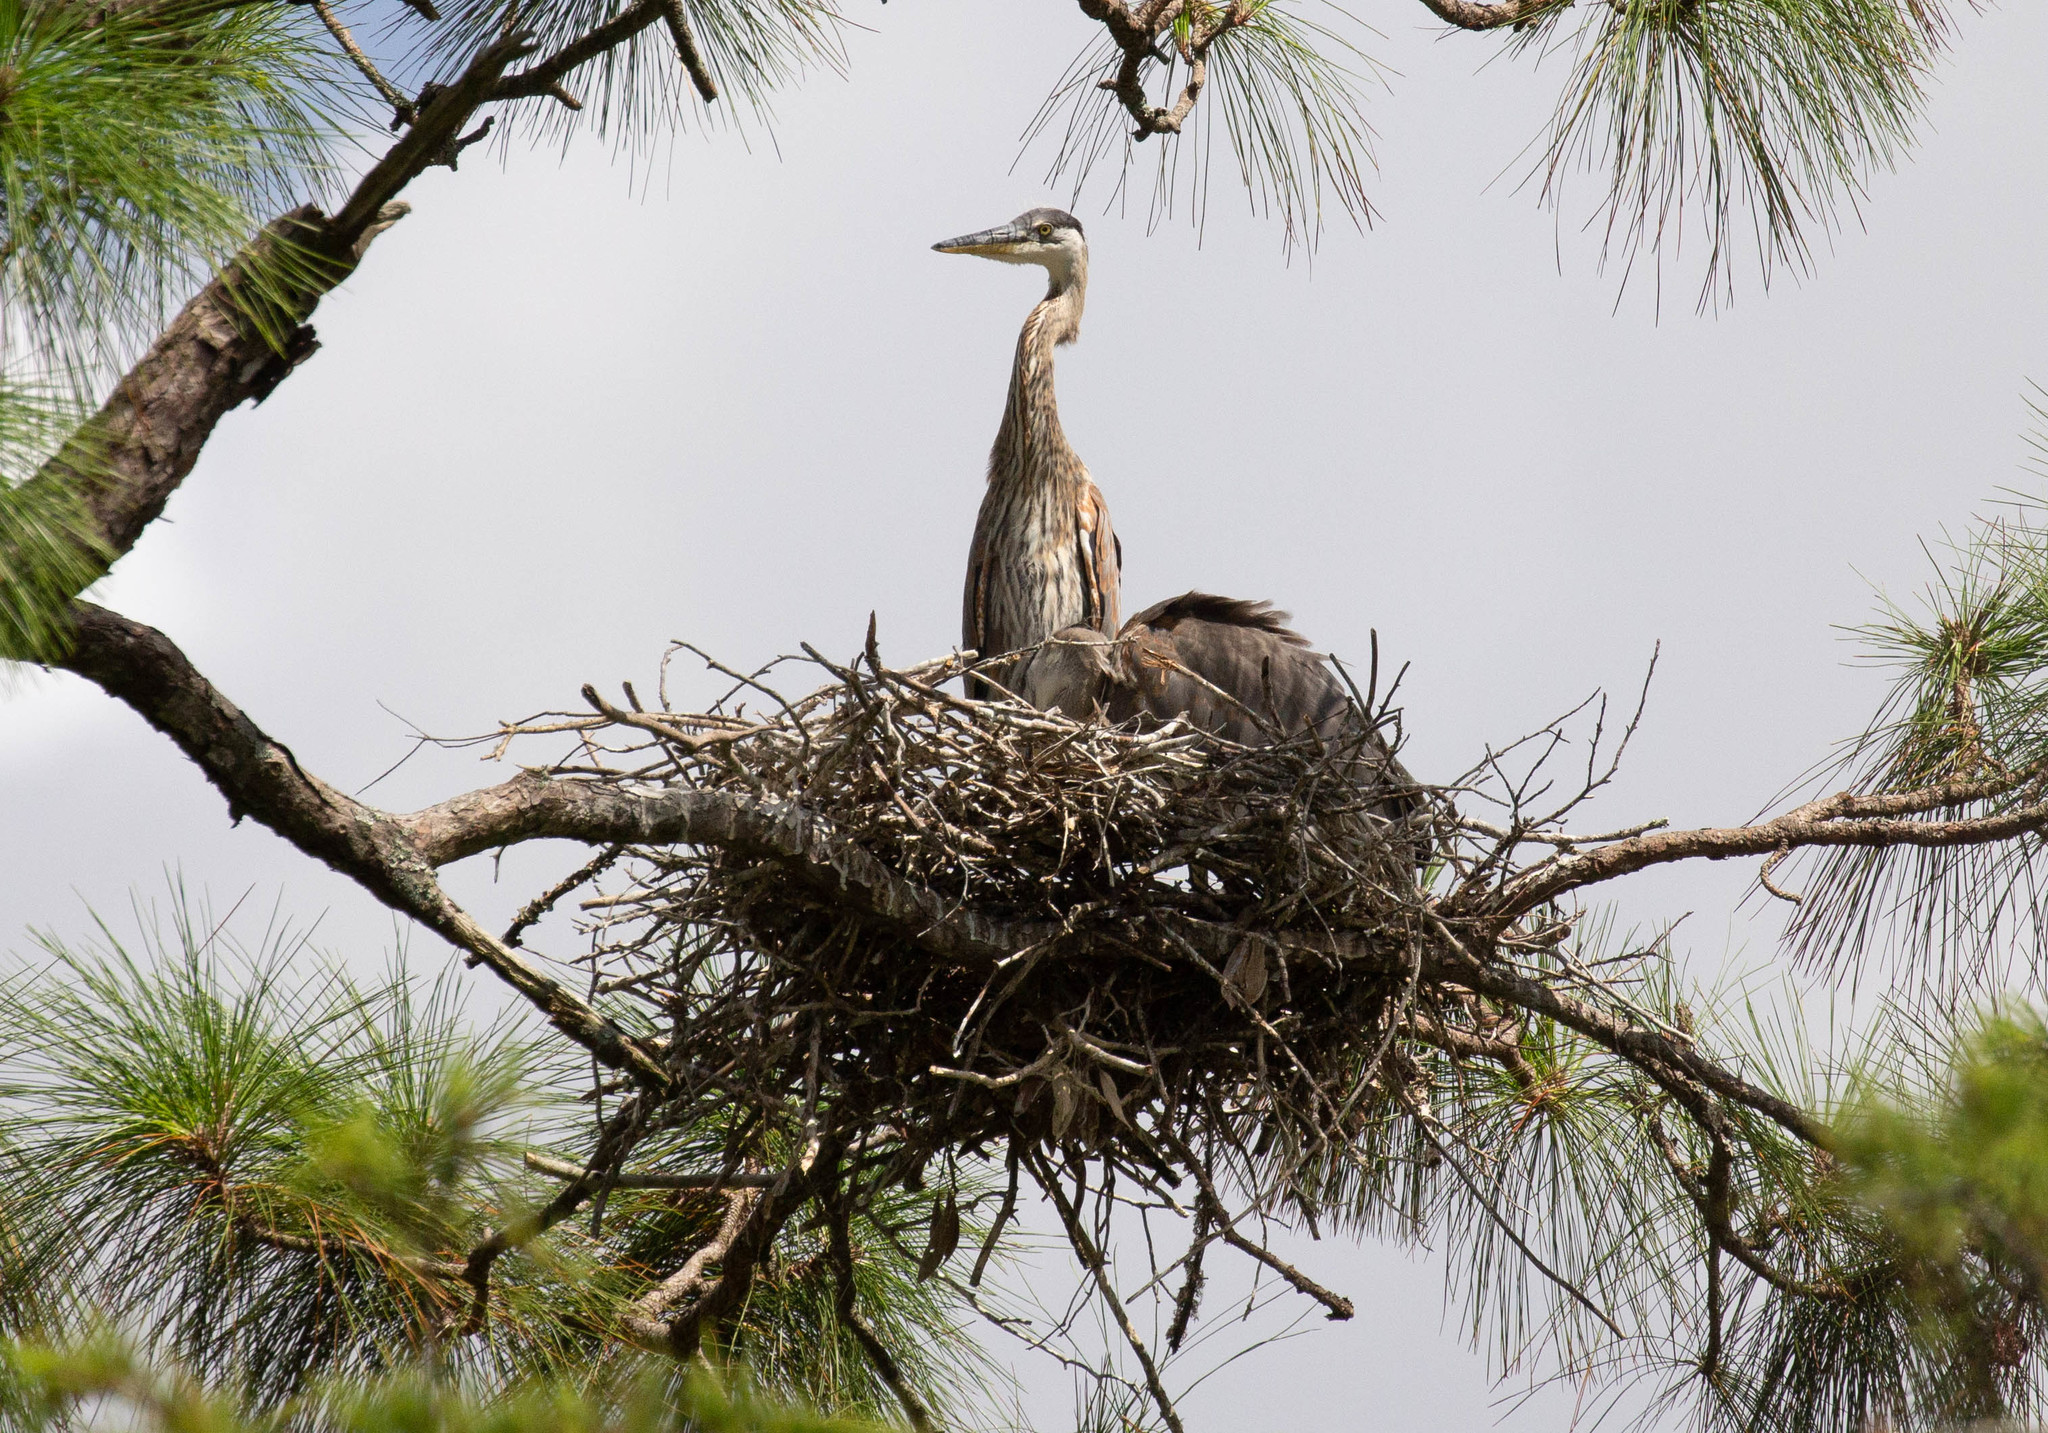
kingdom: Animalia
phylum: Chordata
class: Aves
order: Pelecaniformes
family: Ardeidae
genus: Ardea
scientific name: Ardea herodias
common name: Great blue heron
